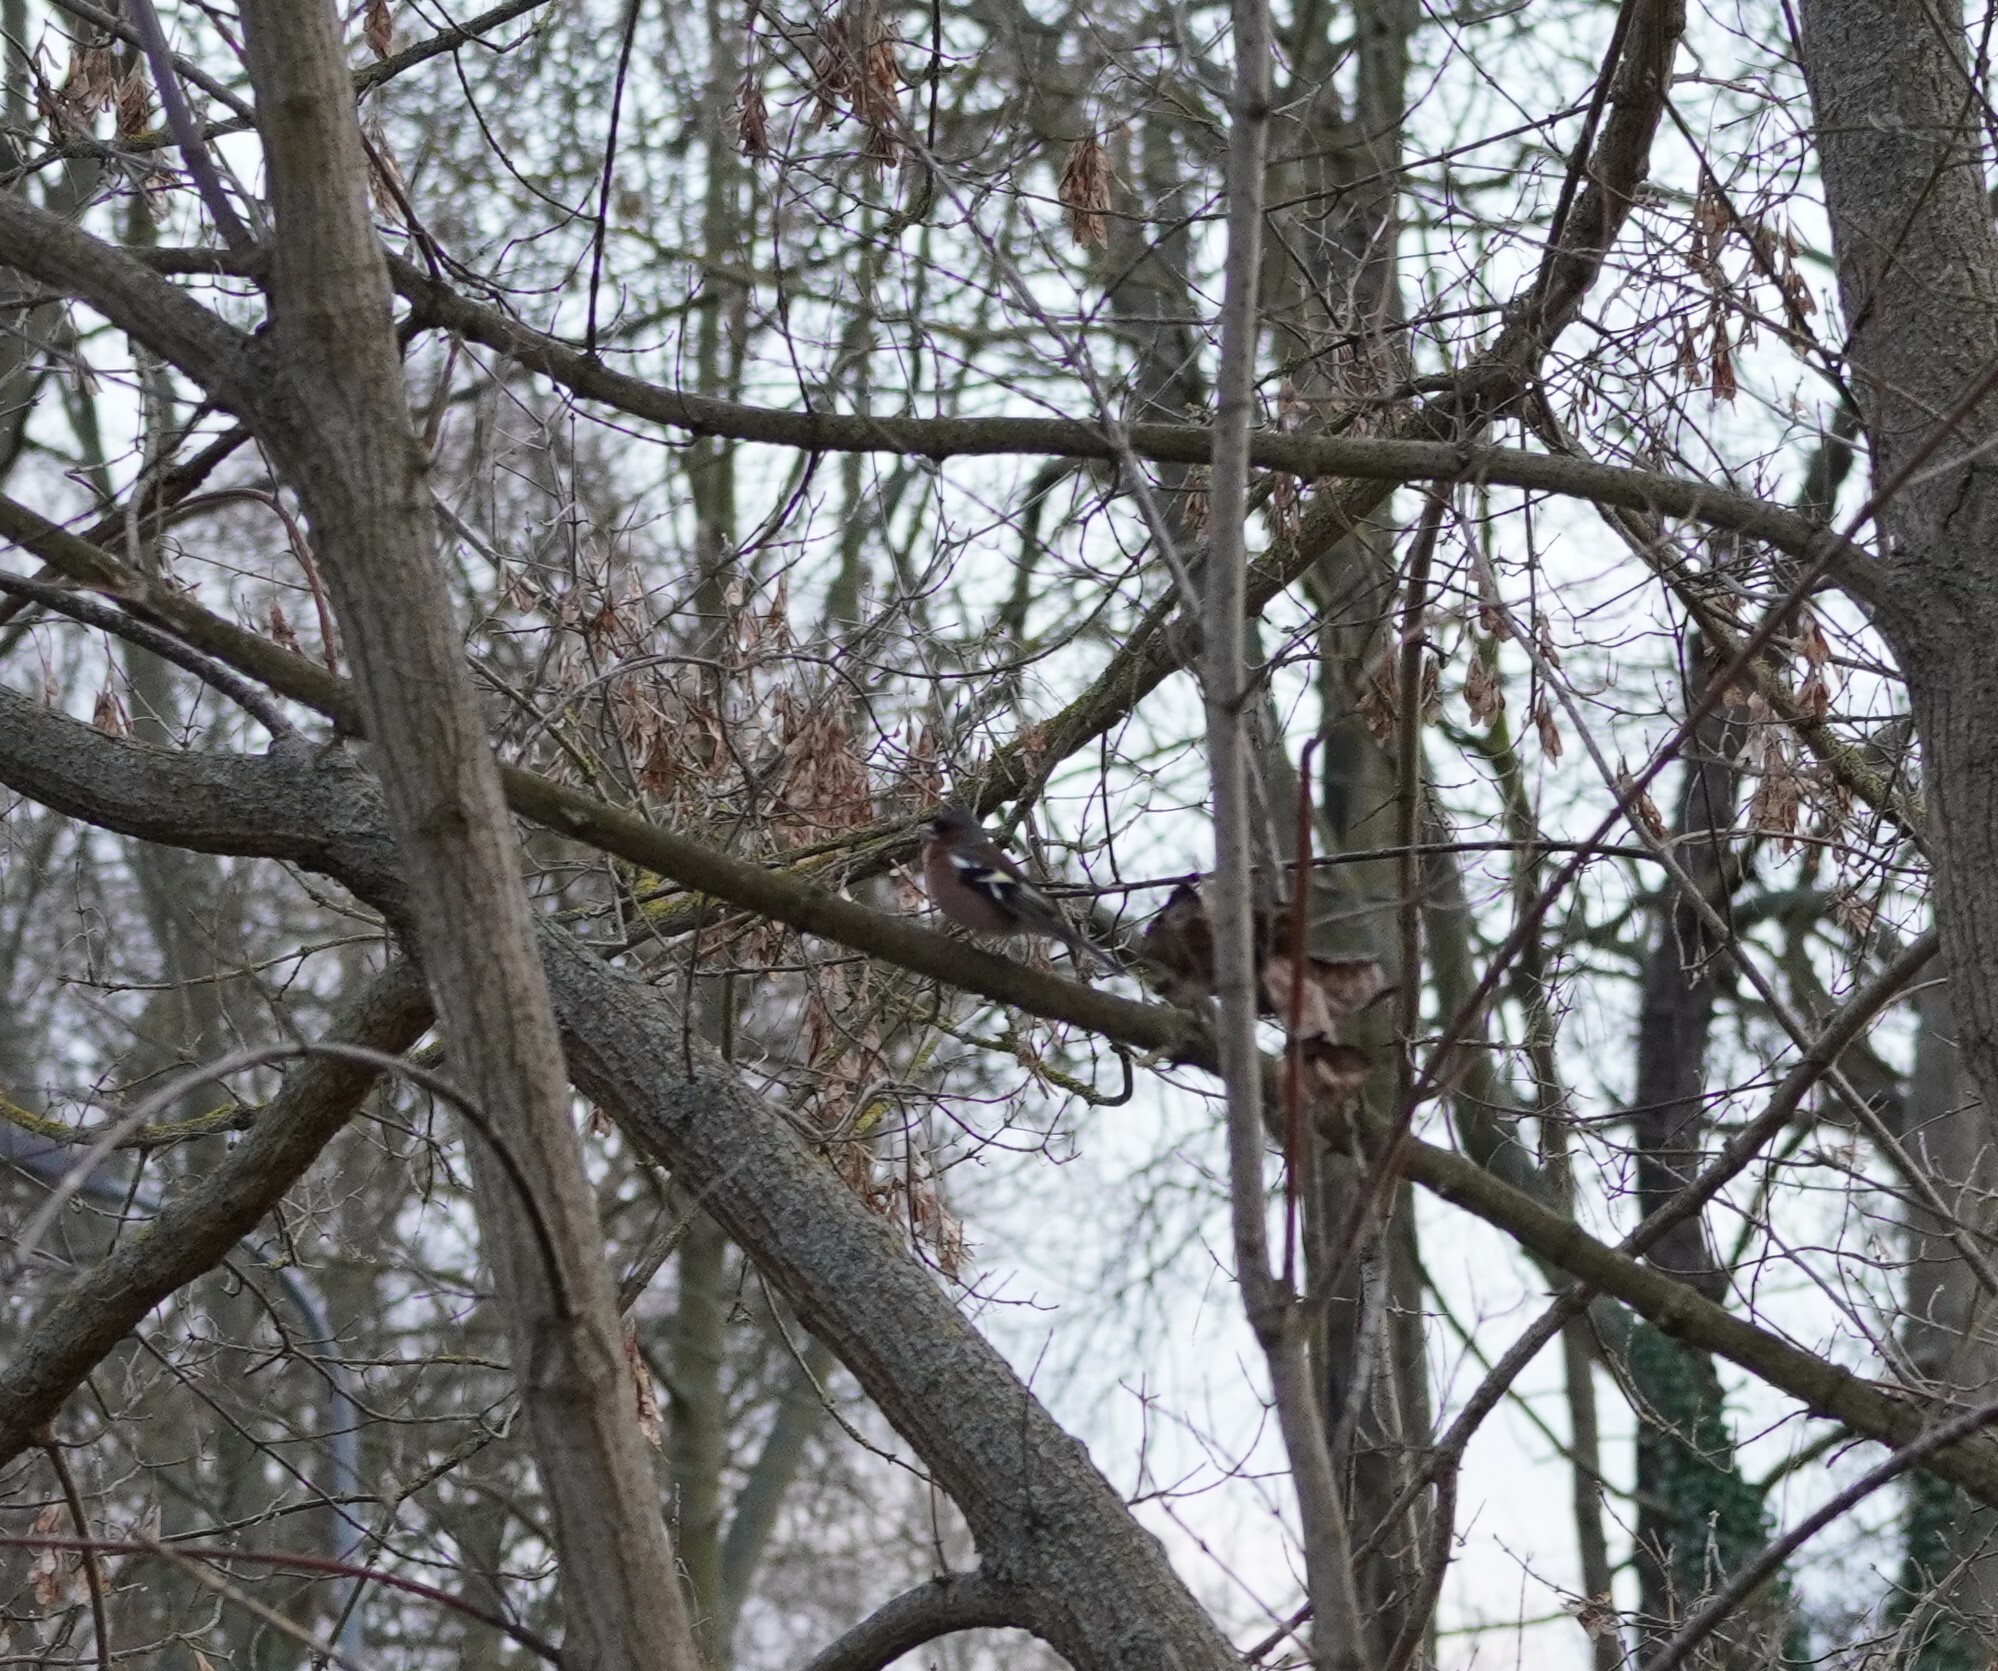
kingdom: Animalia
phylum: Chordata
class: Aves
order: Passeriformes
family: Fringillidae
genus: Fringilla
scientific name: Fringilla coelebs
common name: Common chaffinch
